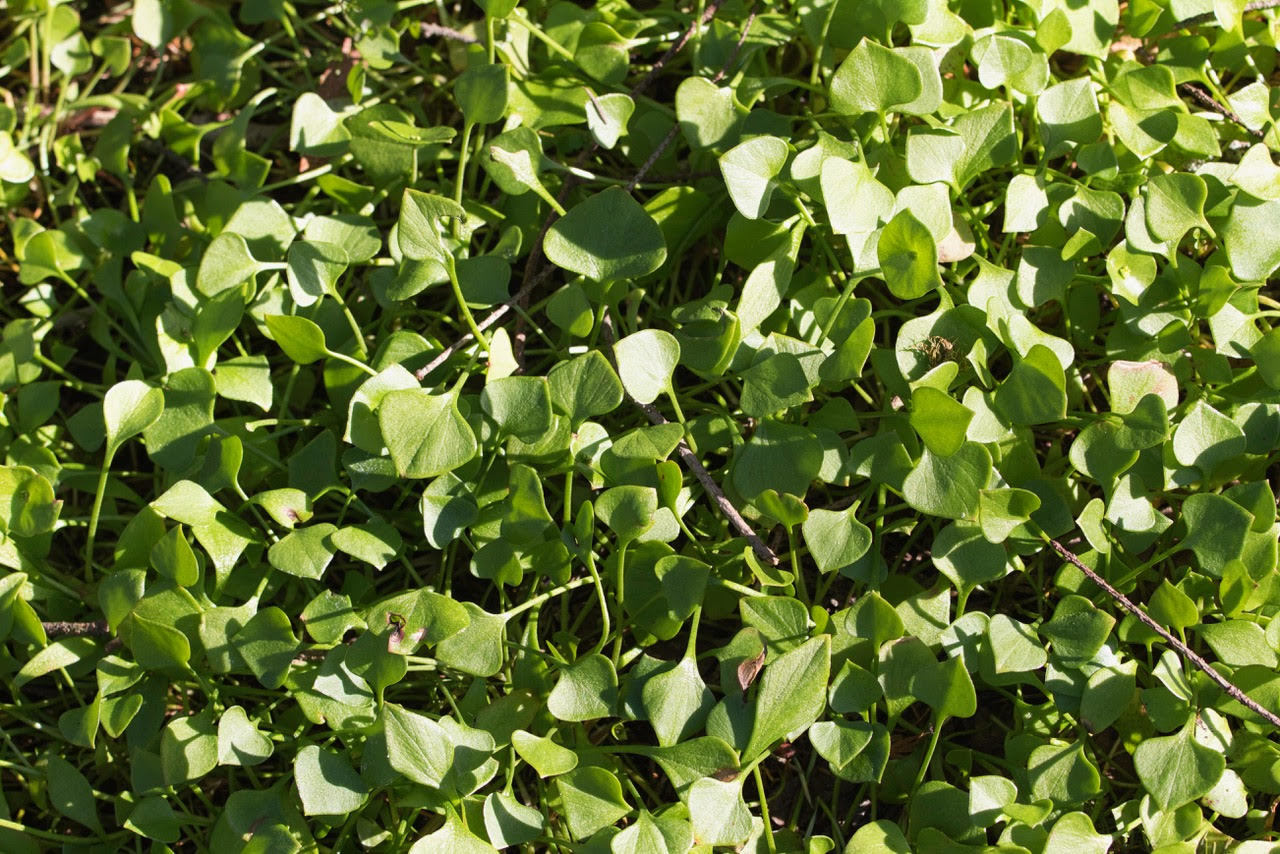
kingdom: Plantae
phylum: Tracheophyta
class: Magnoliopsida
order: Caryophyllales
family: Montiaceae
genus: Claytonia
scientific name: Claytonia perfoliata
